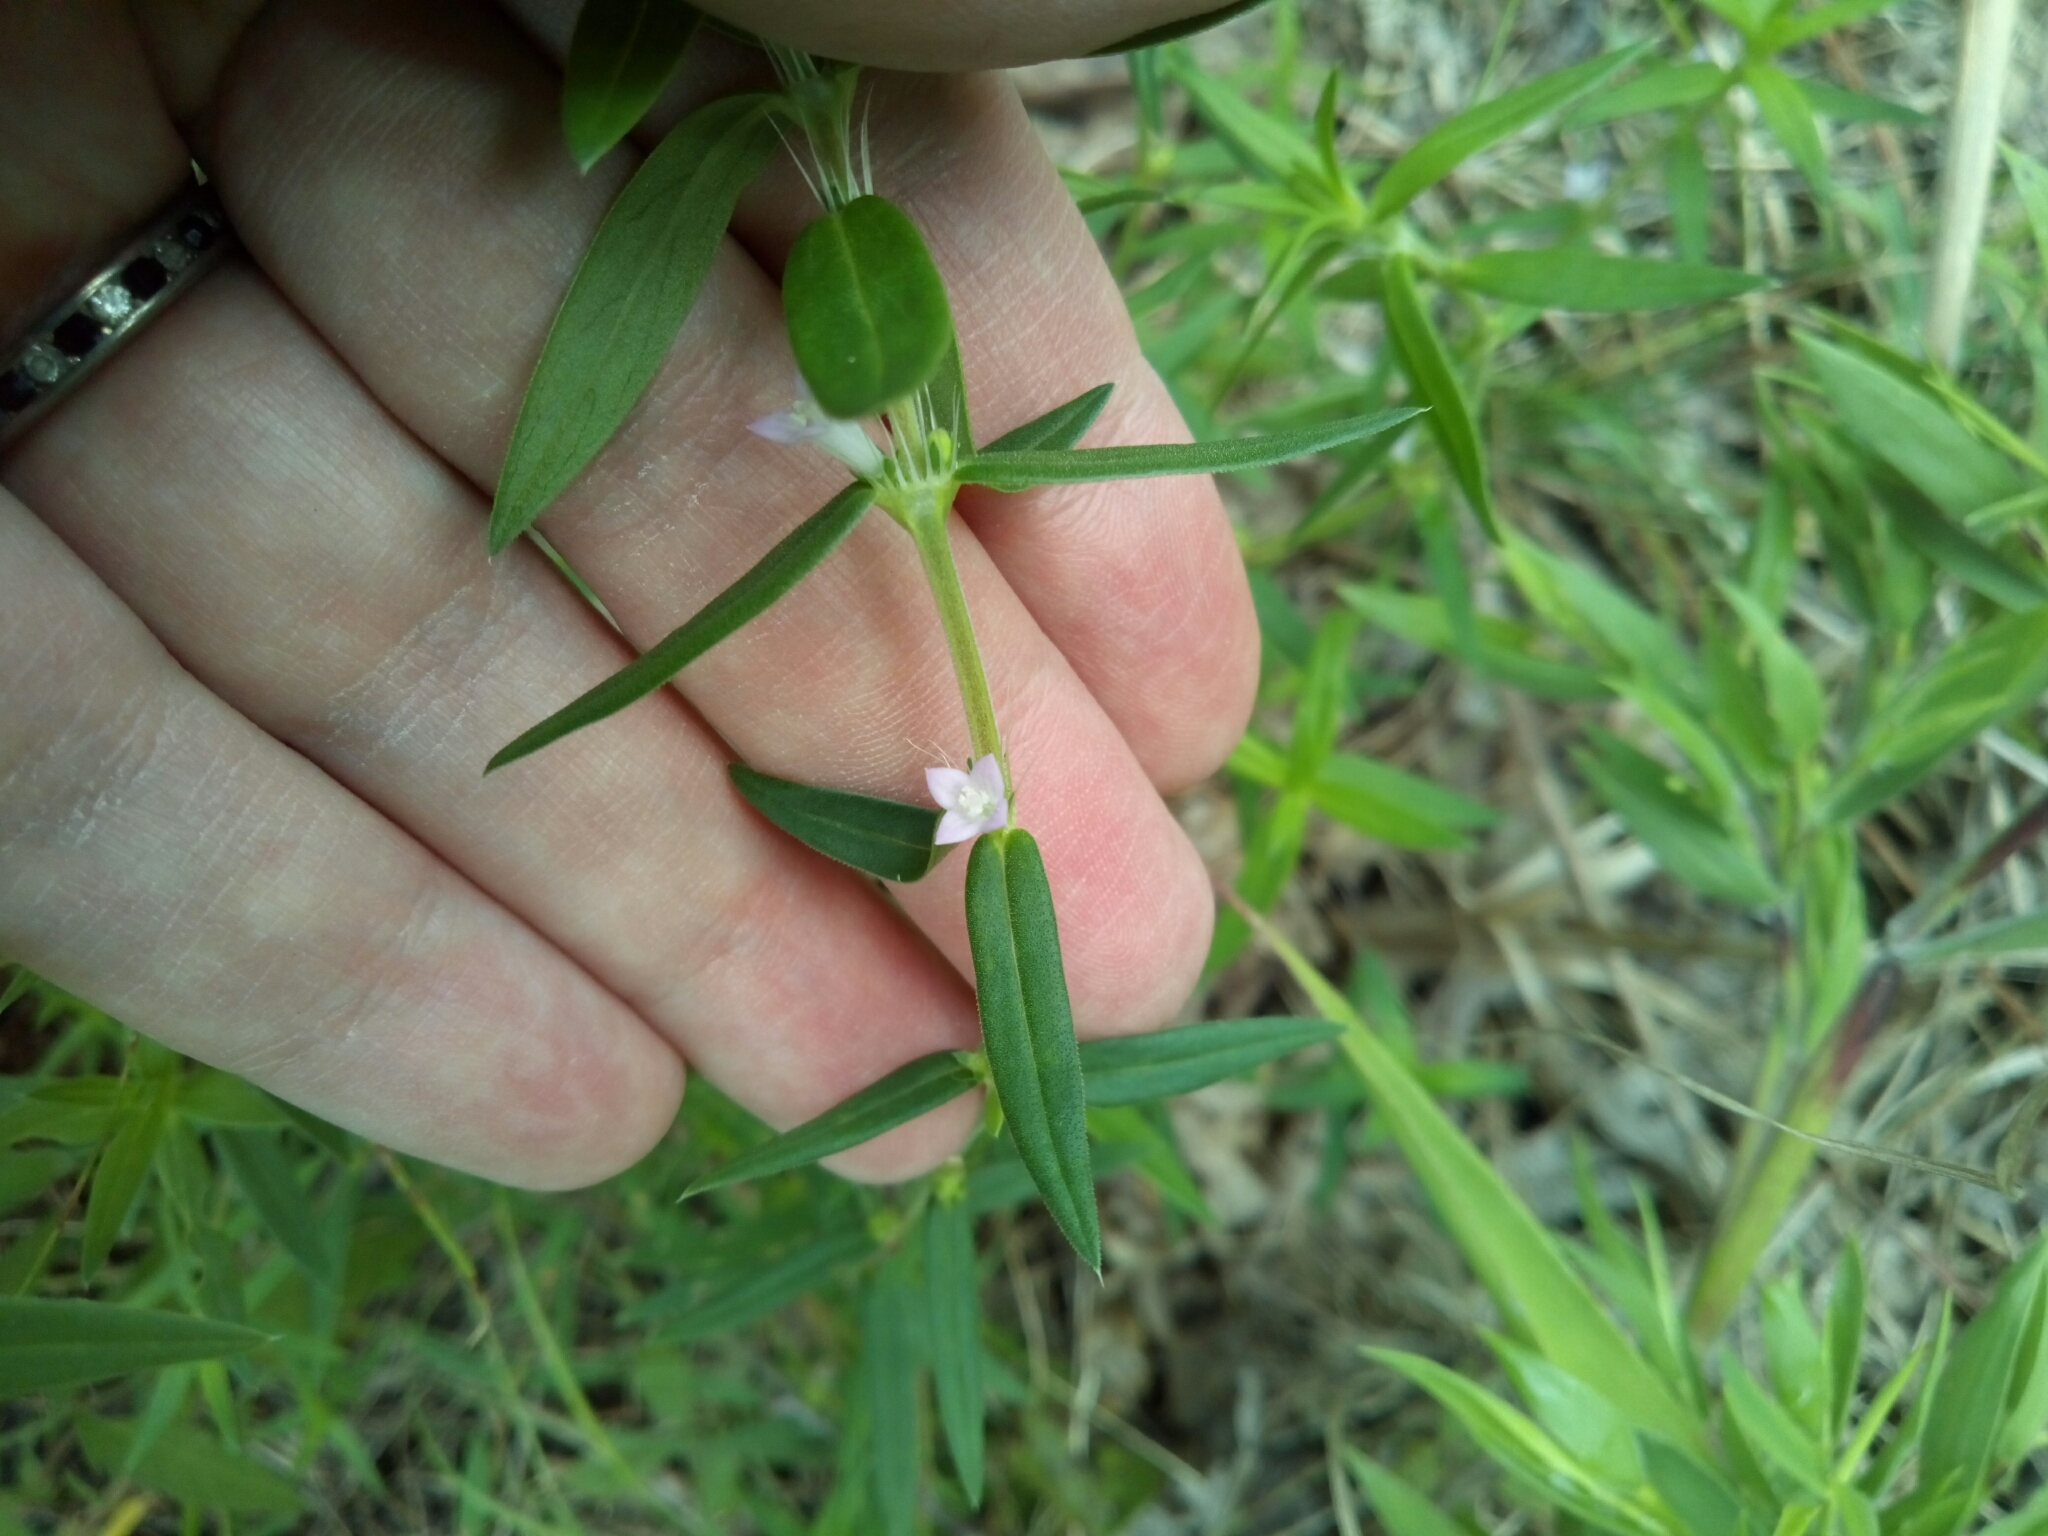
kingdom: Plantae
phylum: Tracheophyta
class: Magnoliopsida
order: Gentianales
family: Rubiaceae
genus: Hexasepalum
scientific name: Hexasepalum teres
